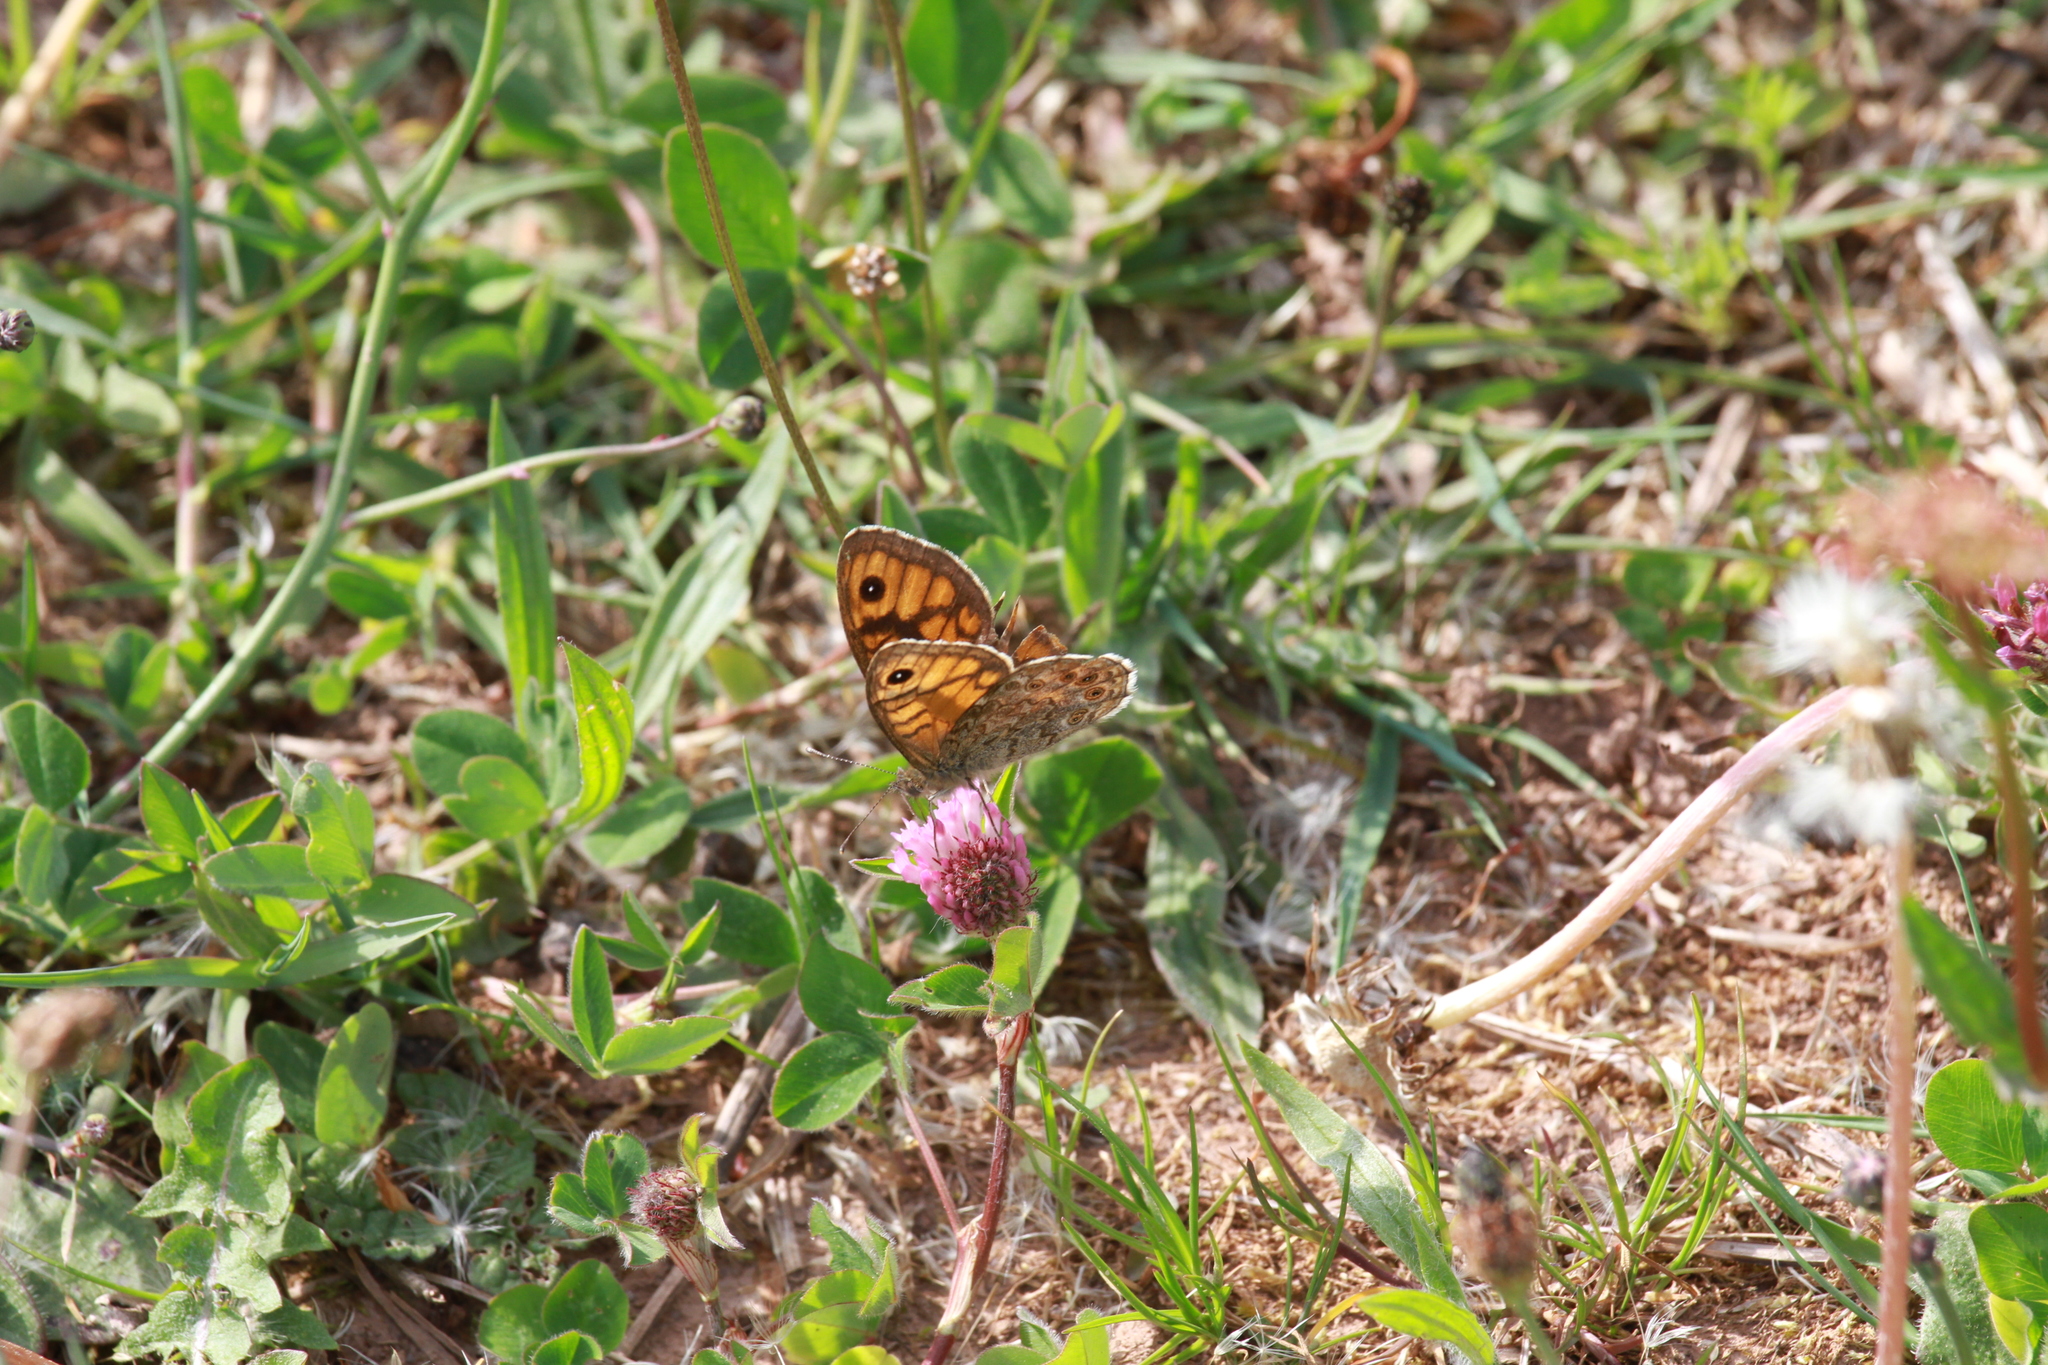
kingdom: Animalia
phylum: Arthropoda
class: Insecta
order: Lepidoptera
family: Nymphalidae
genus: Pararge
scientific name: Pararge Lasiommata megera
